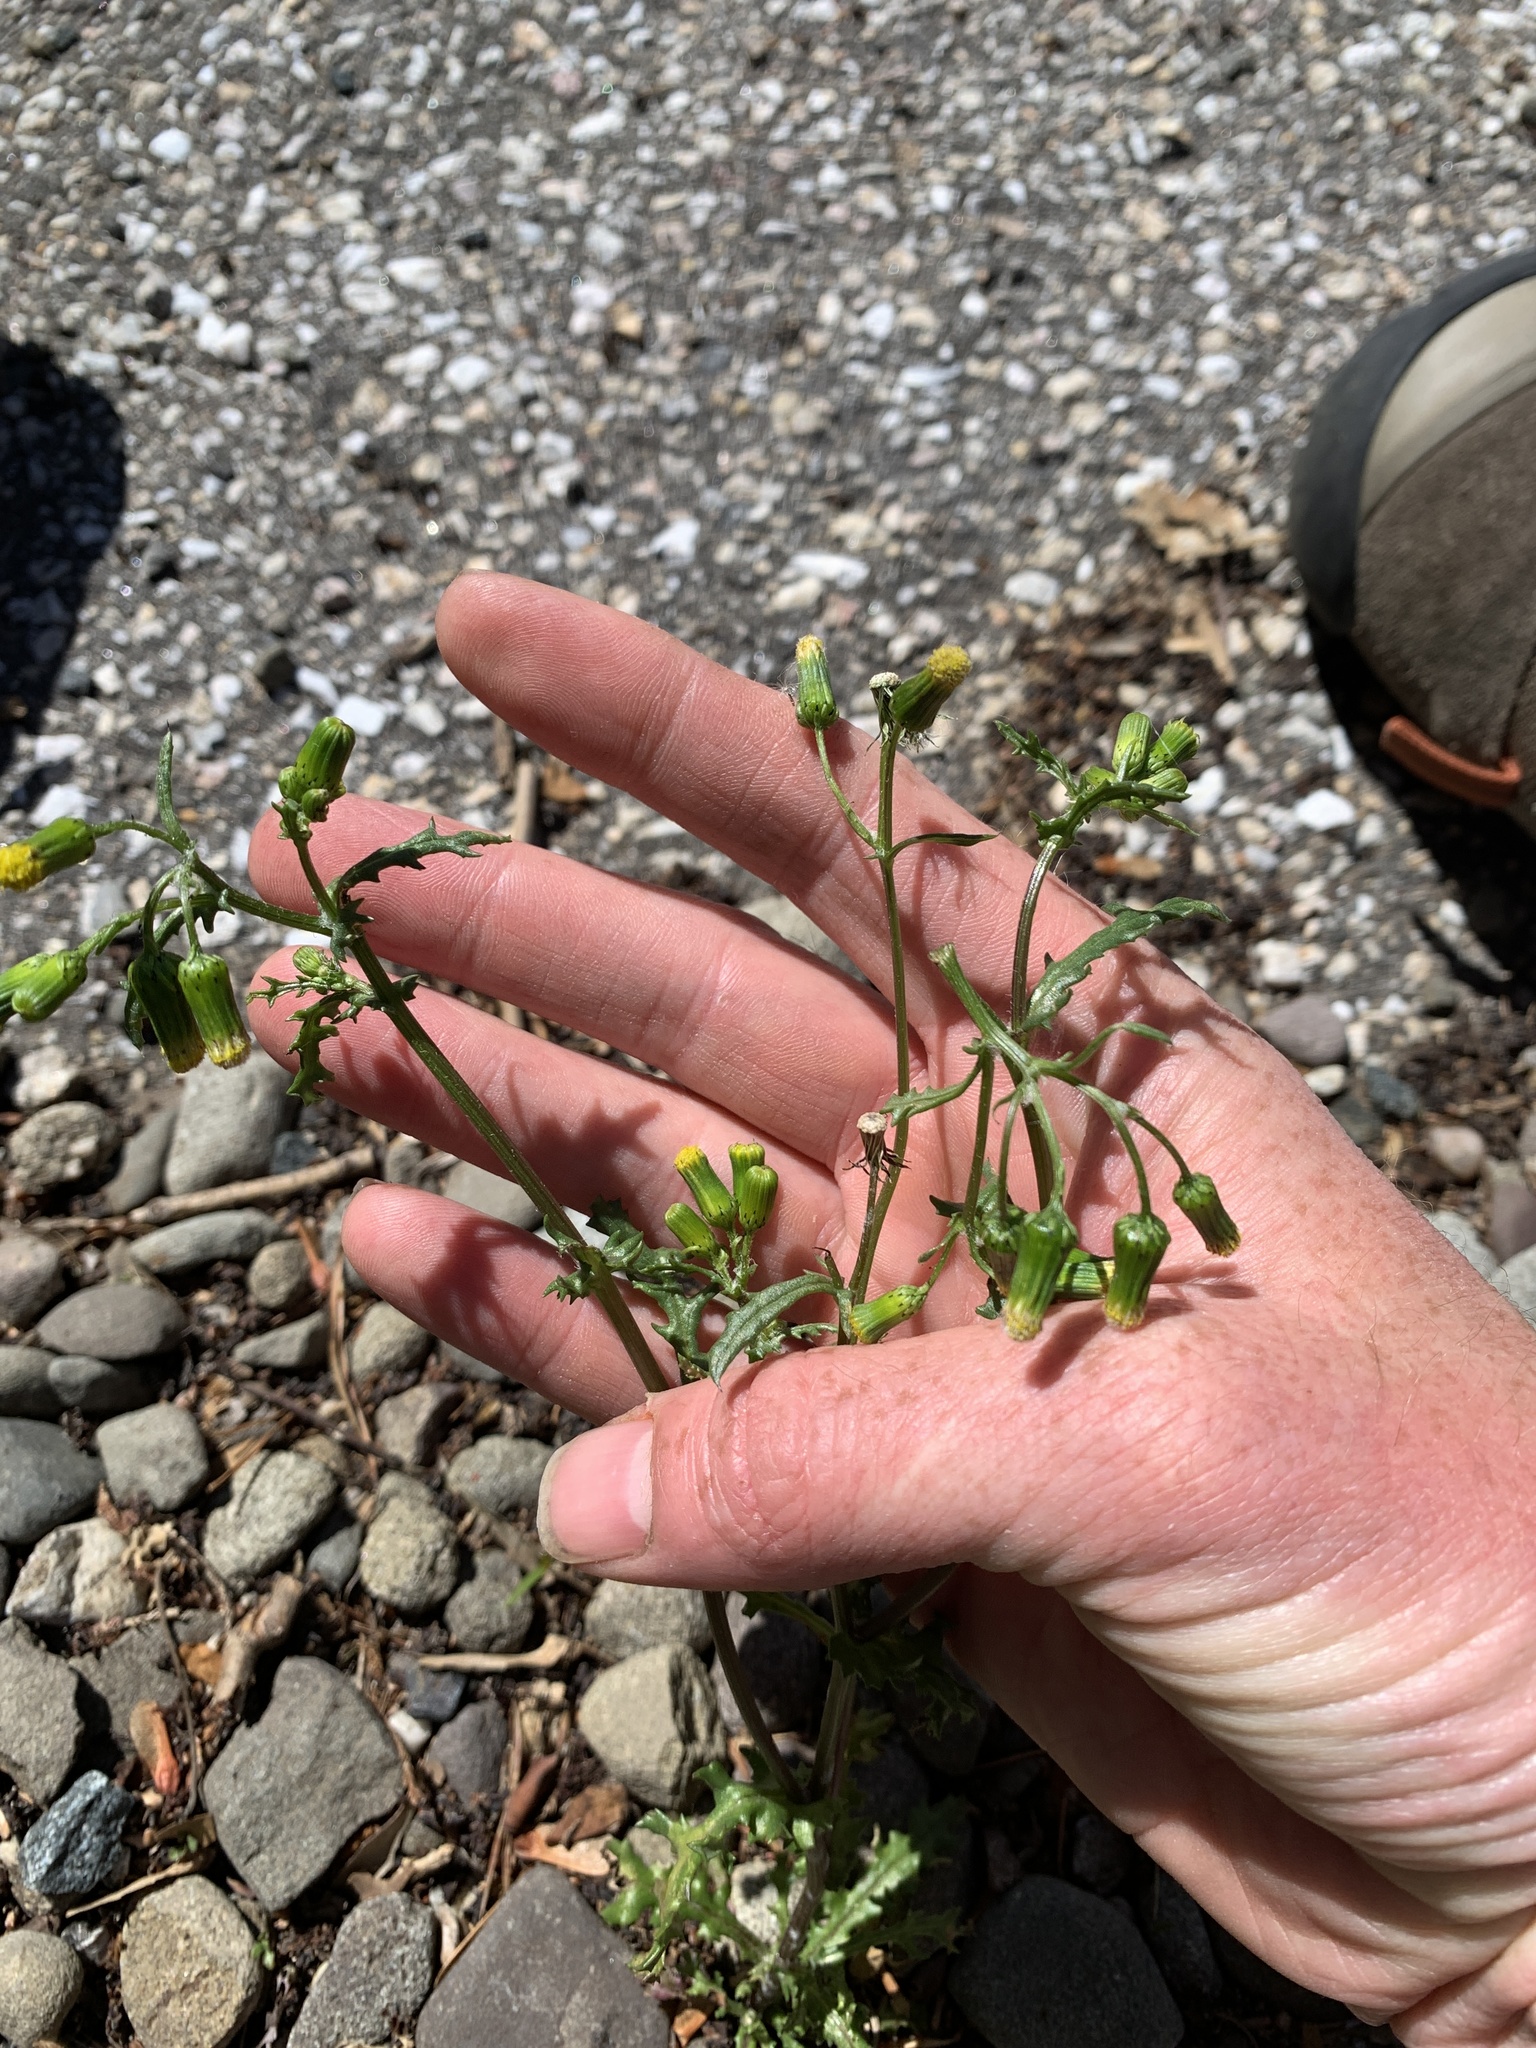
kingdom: Plantae
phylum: Tracheophyta
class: Magnoliopsida
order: Asterales
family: Asteraceae
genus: Senecio
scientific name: Senecio vulgaris
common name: Old-man-in-the-spring
